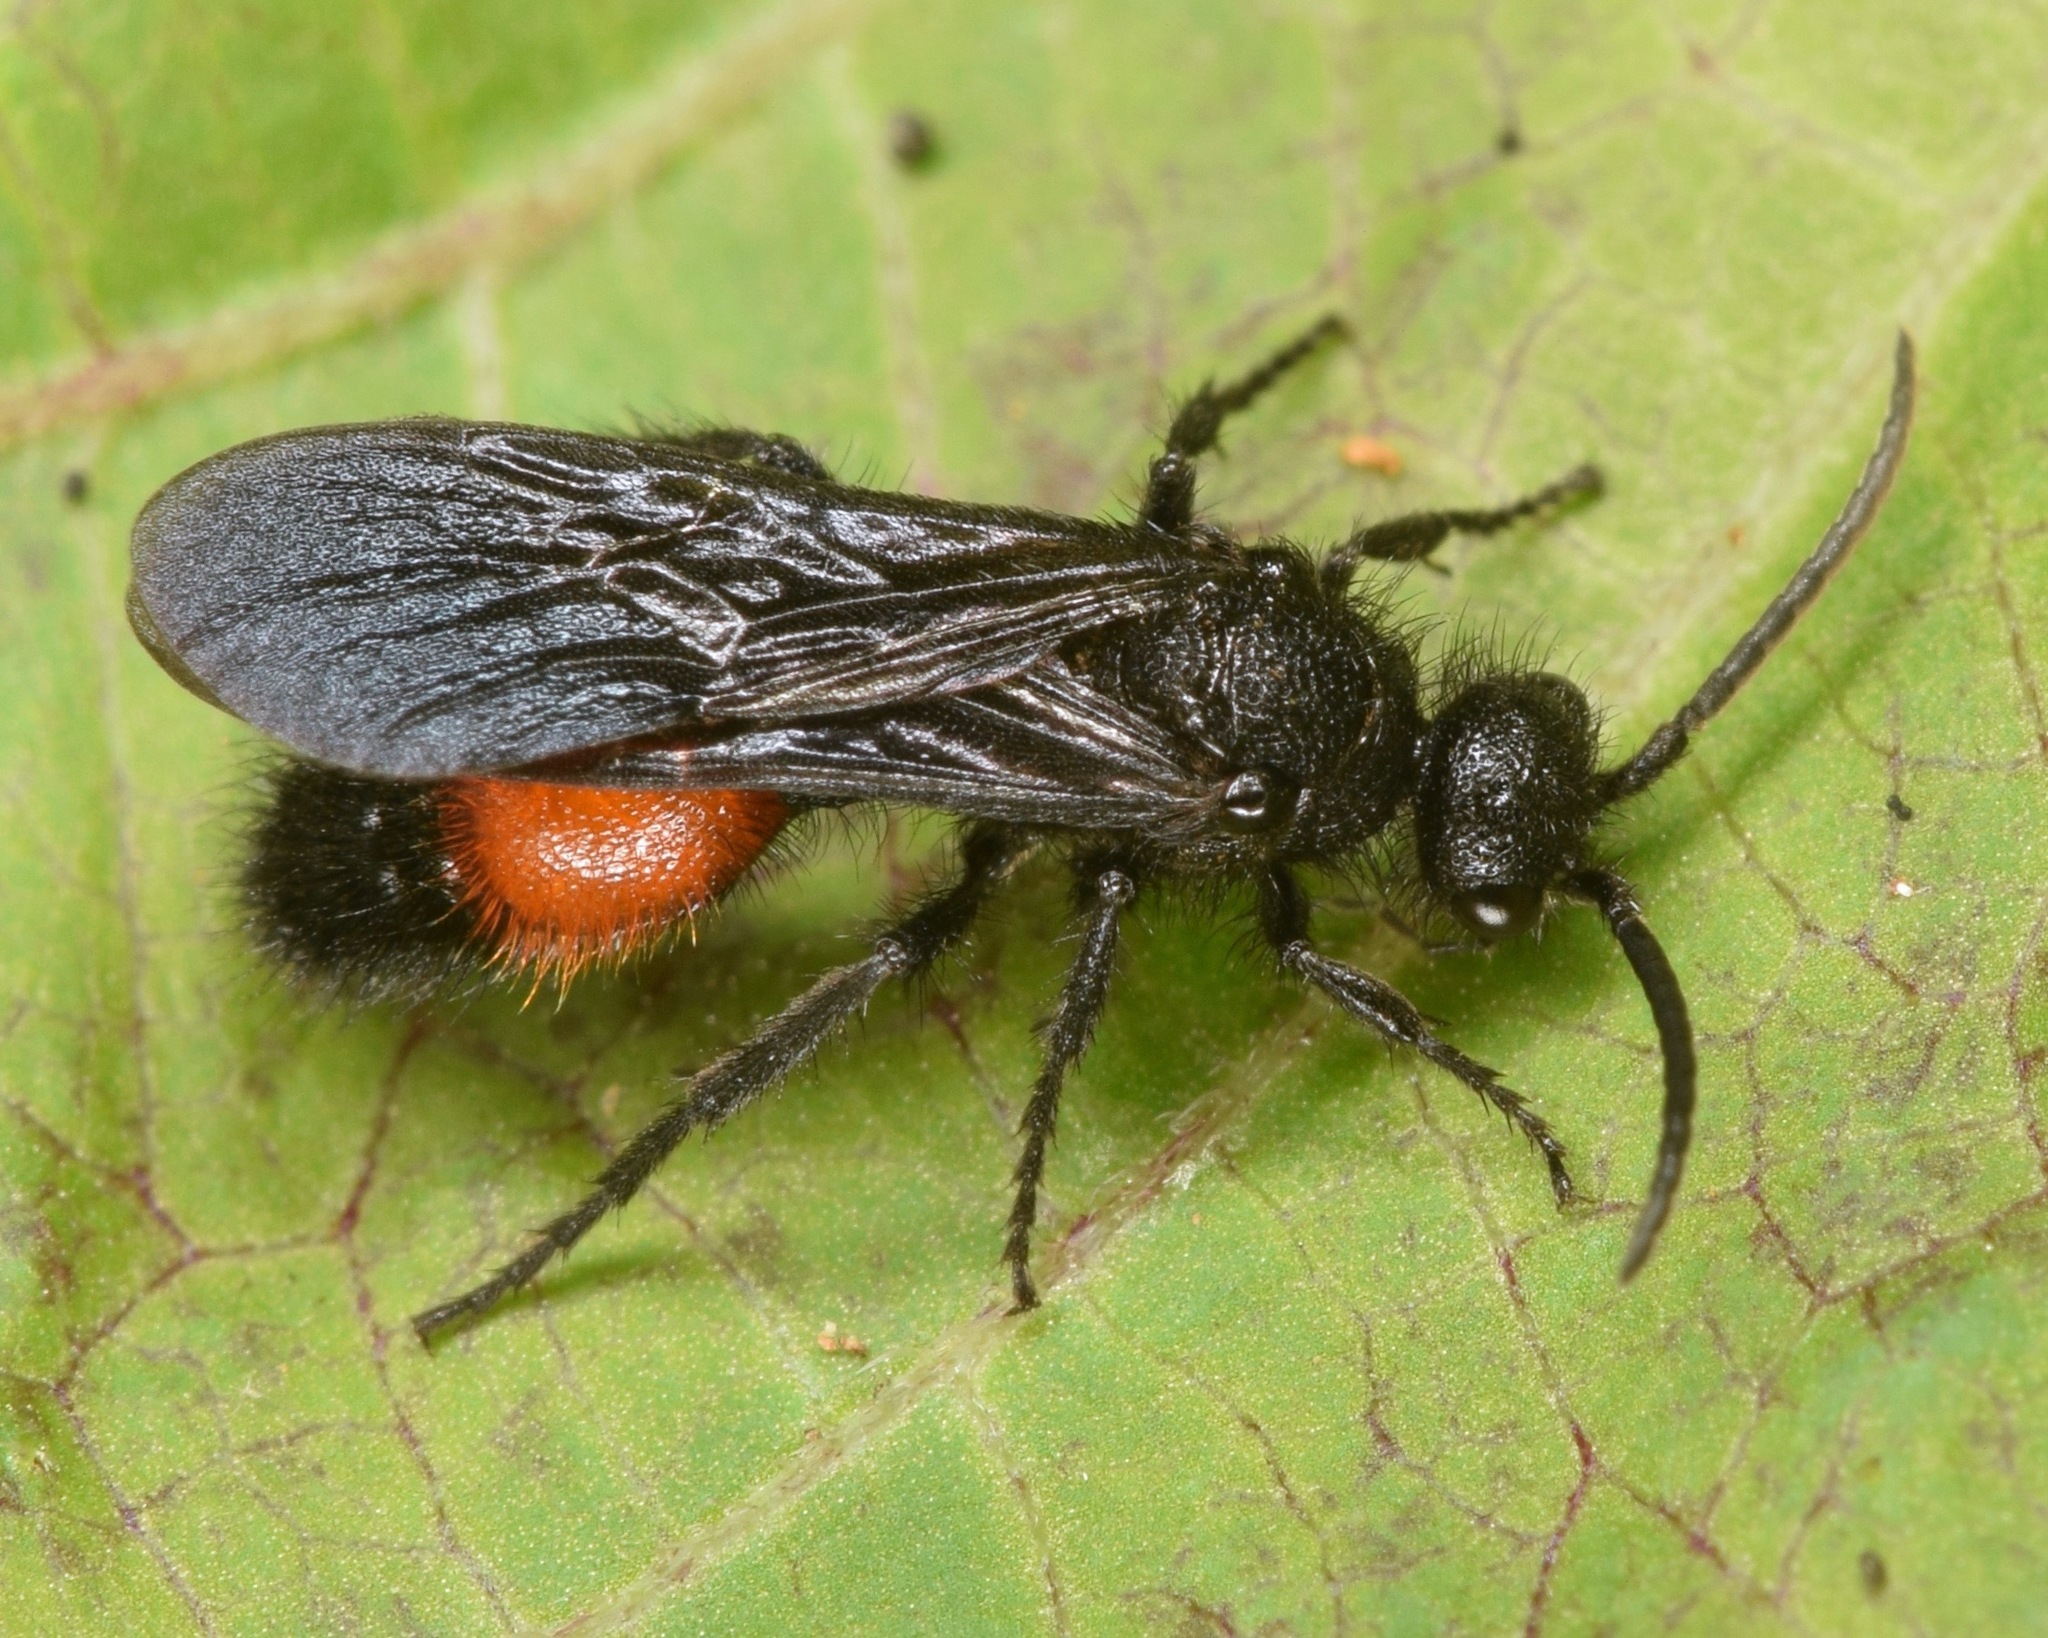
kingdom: Animalia
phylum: Arthropoda
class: Insecta
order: Hymenoptera
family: Mutillidae
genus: Dasymutilla
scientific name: Dasymutilla
